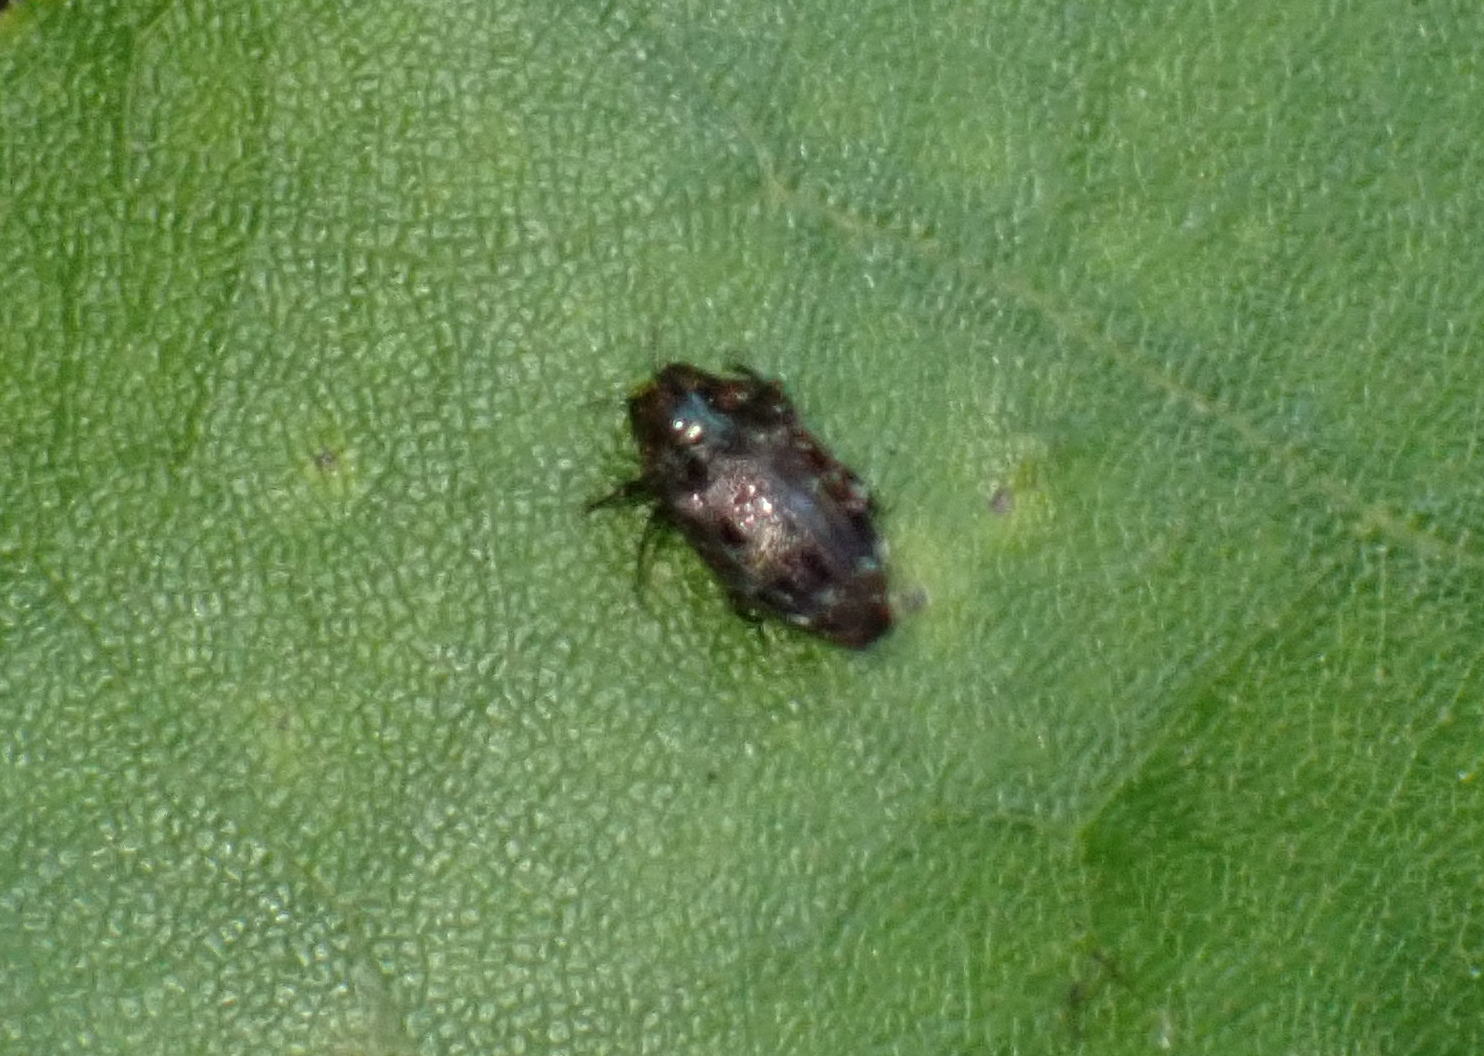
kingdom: Animalia
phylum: Arthropoda
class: Insecta
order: Coleoptera
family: Buprestidae
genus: Brachys
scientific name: Brachys ovatus
